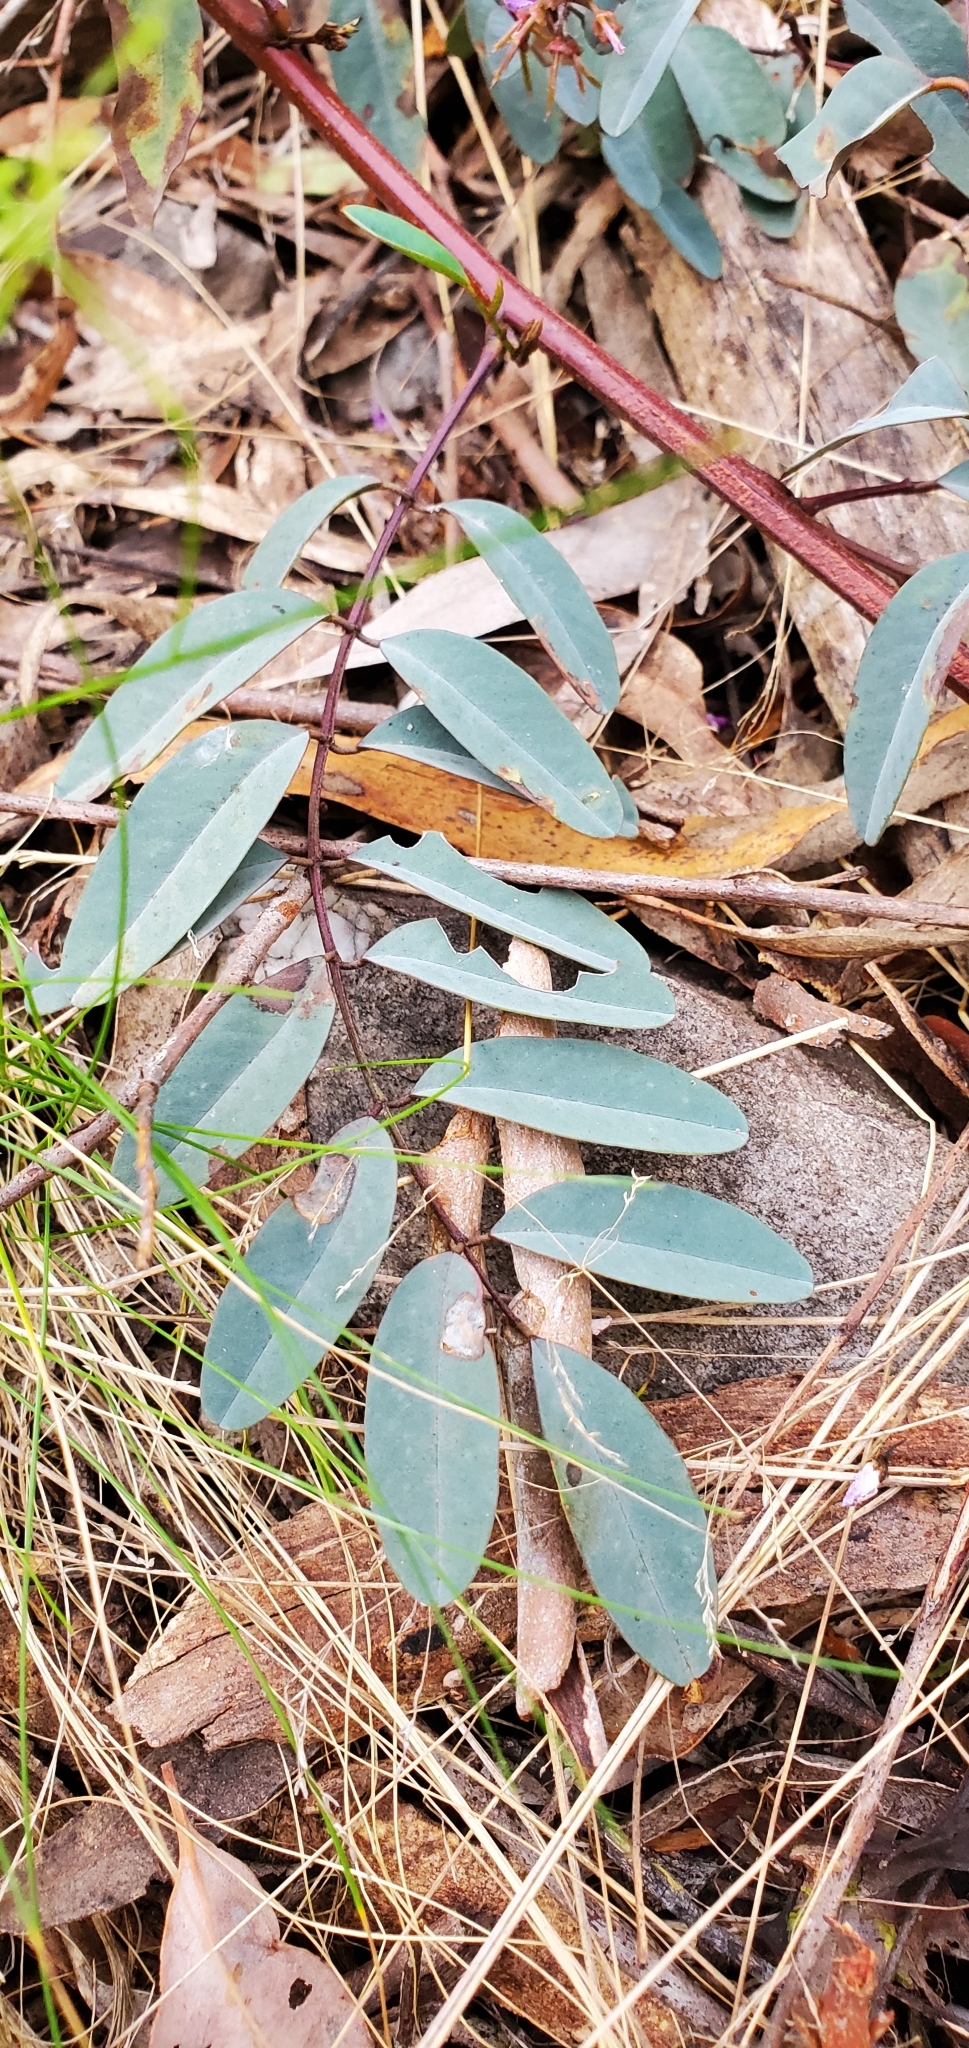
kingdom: Plantae
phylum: Tracheophyta
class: Magnoliopsida
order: Fabales
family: Fabaceae
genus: Indigofera
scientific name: Indigofera australis
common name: Australian indigo
